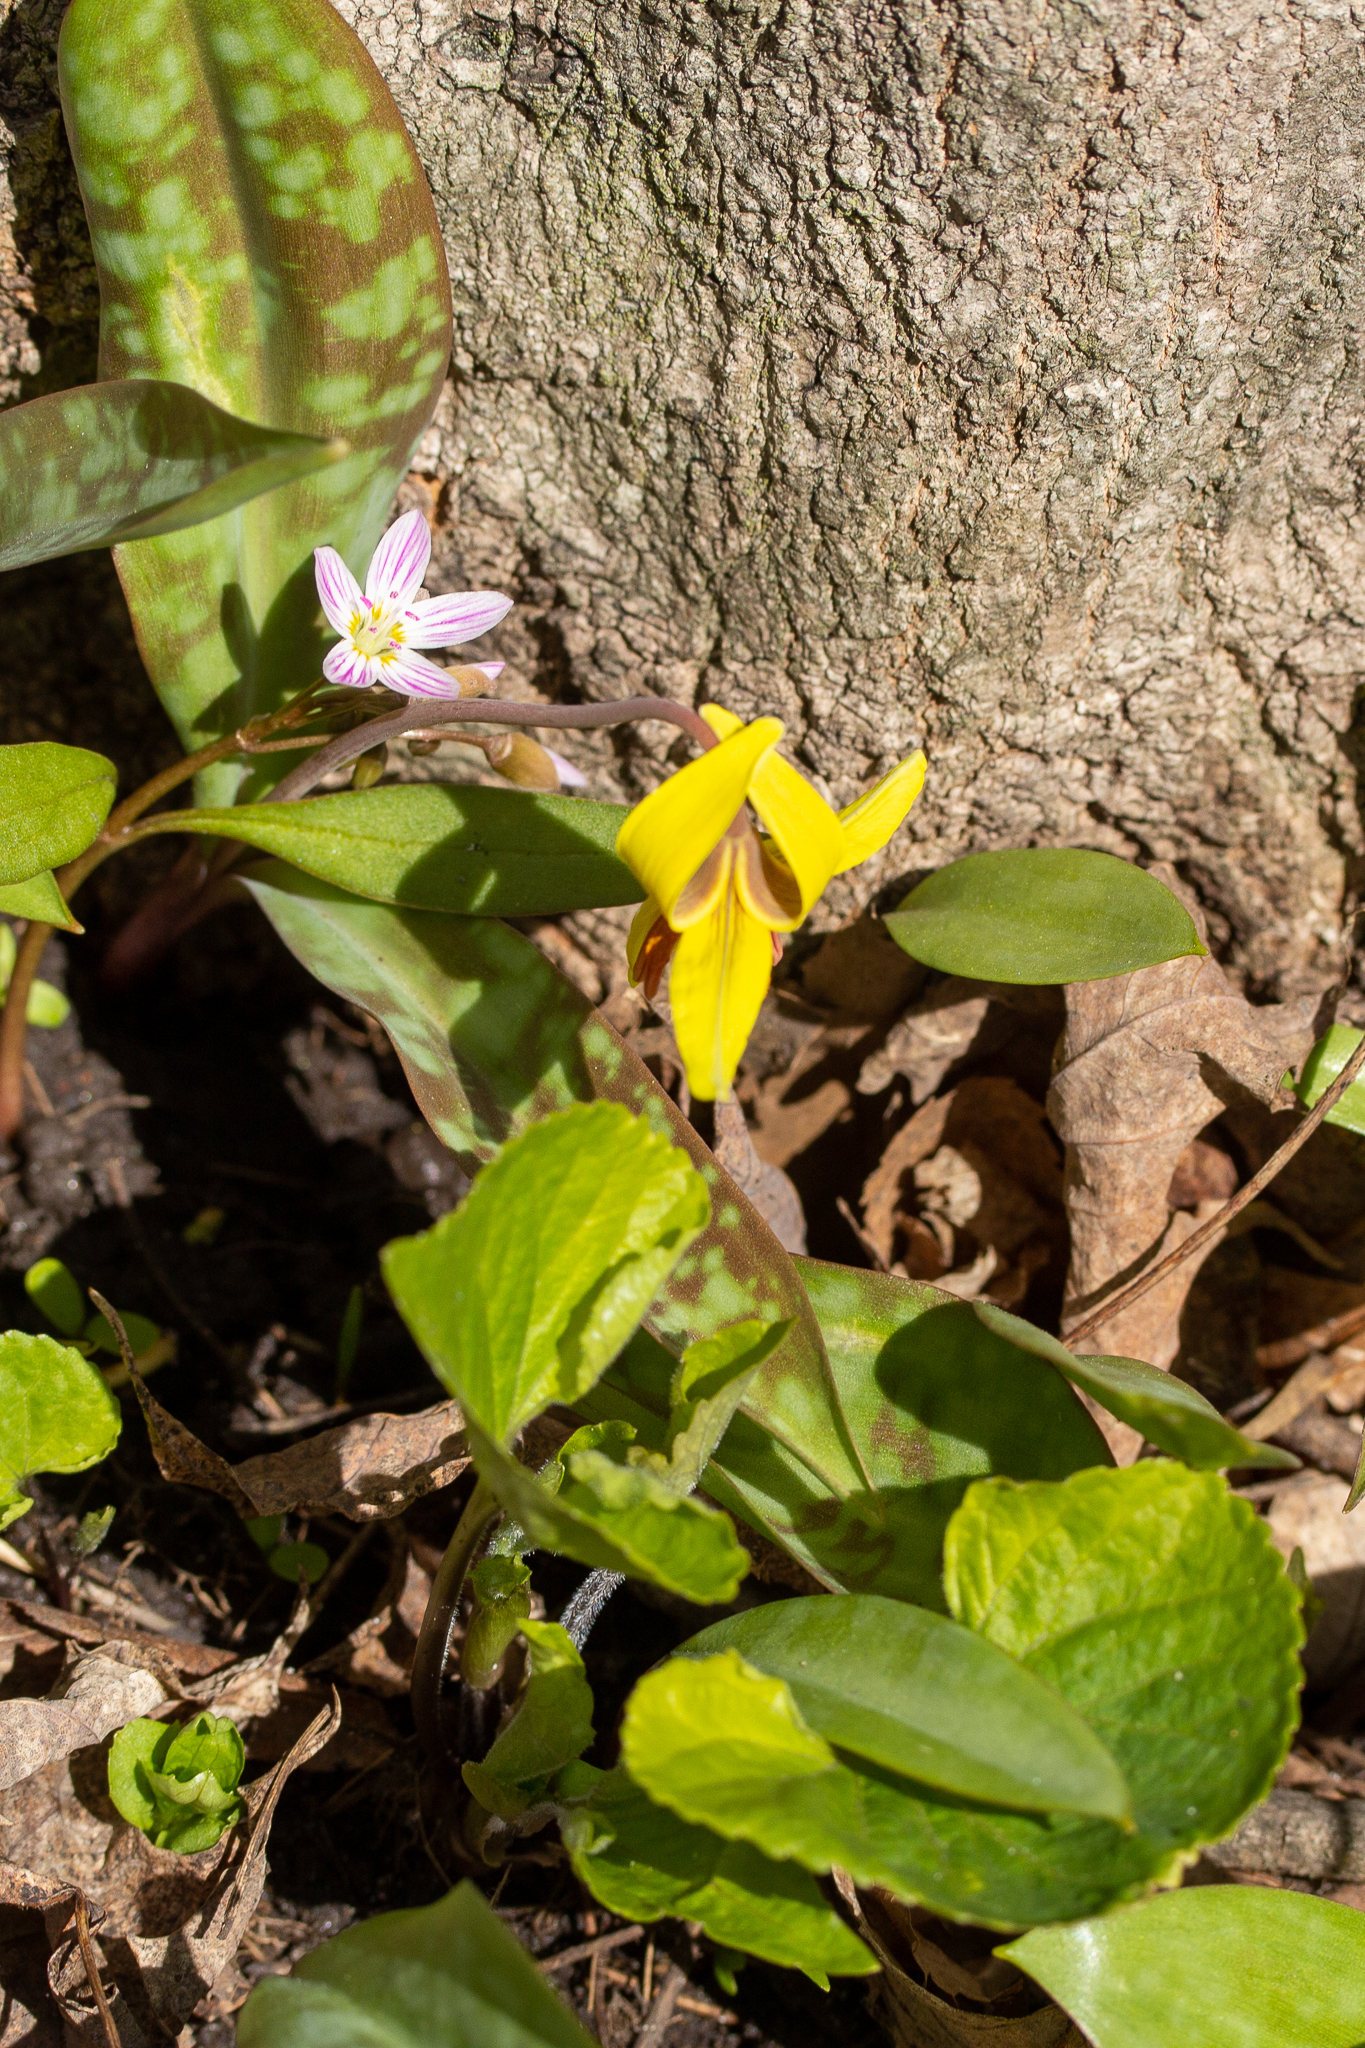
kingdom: Plantae
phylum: Tracheophyta
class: Liliopsida
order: Liliales
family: Liliaceae
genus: Erythronium
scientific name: Erythronium americanum
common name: Yellow adder's-tongue
